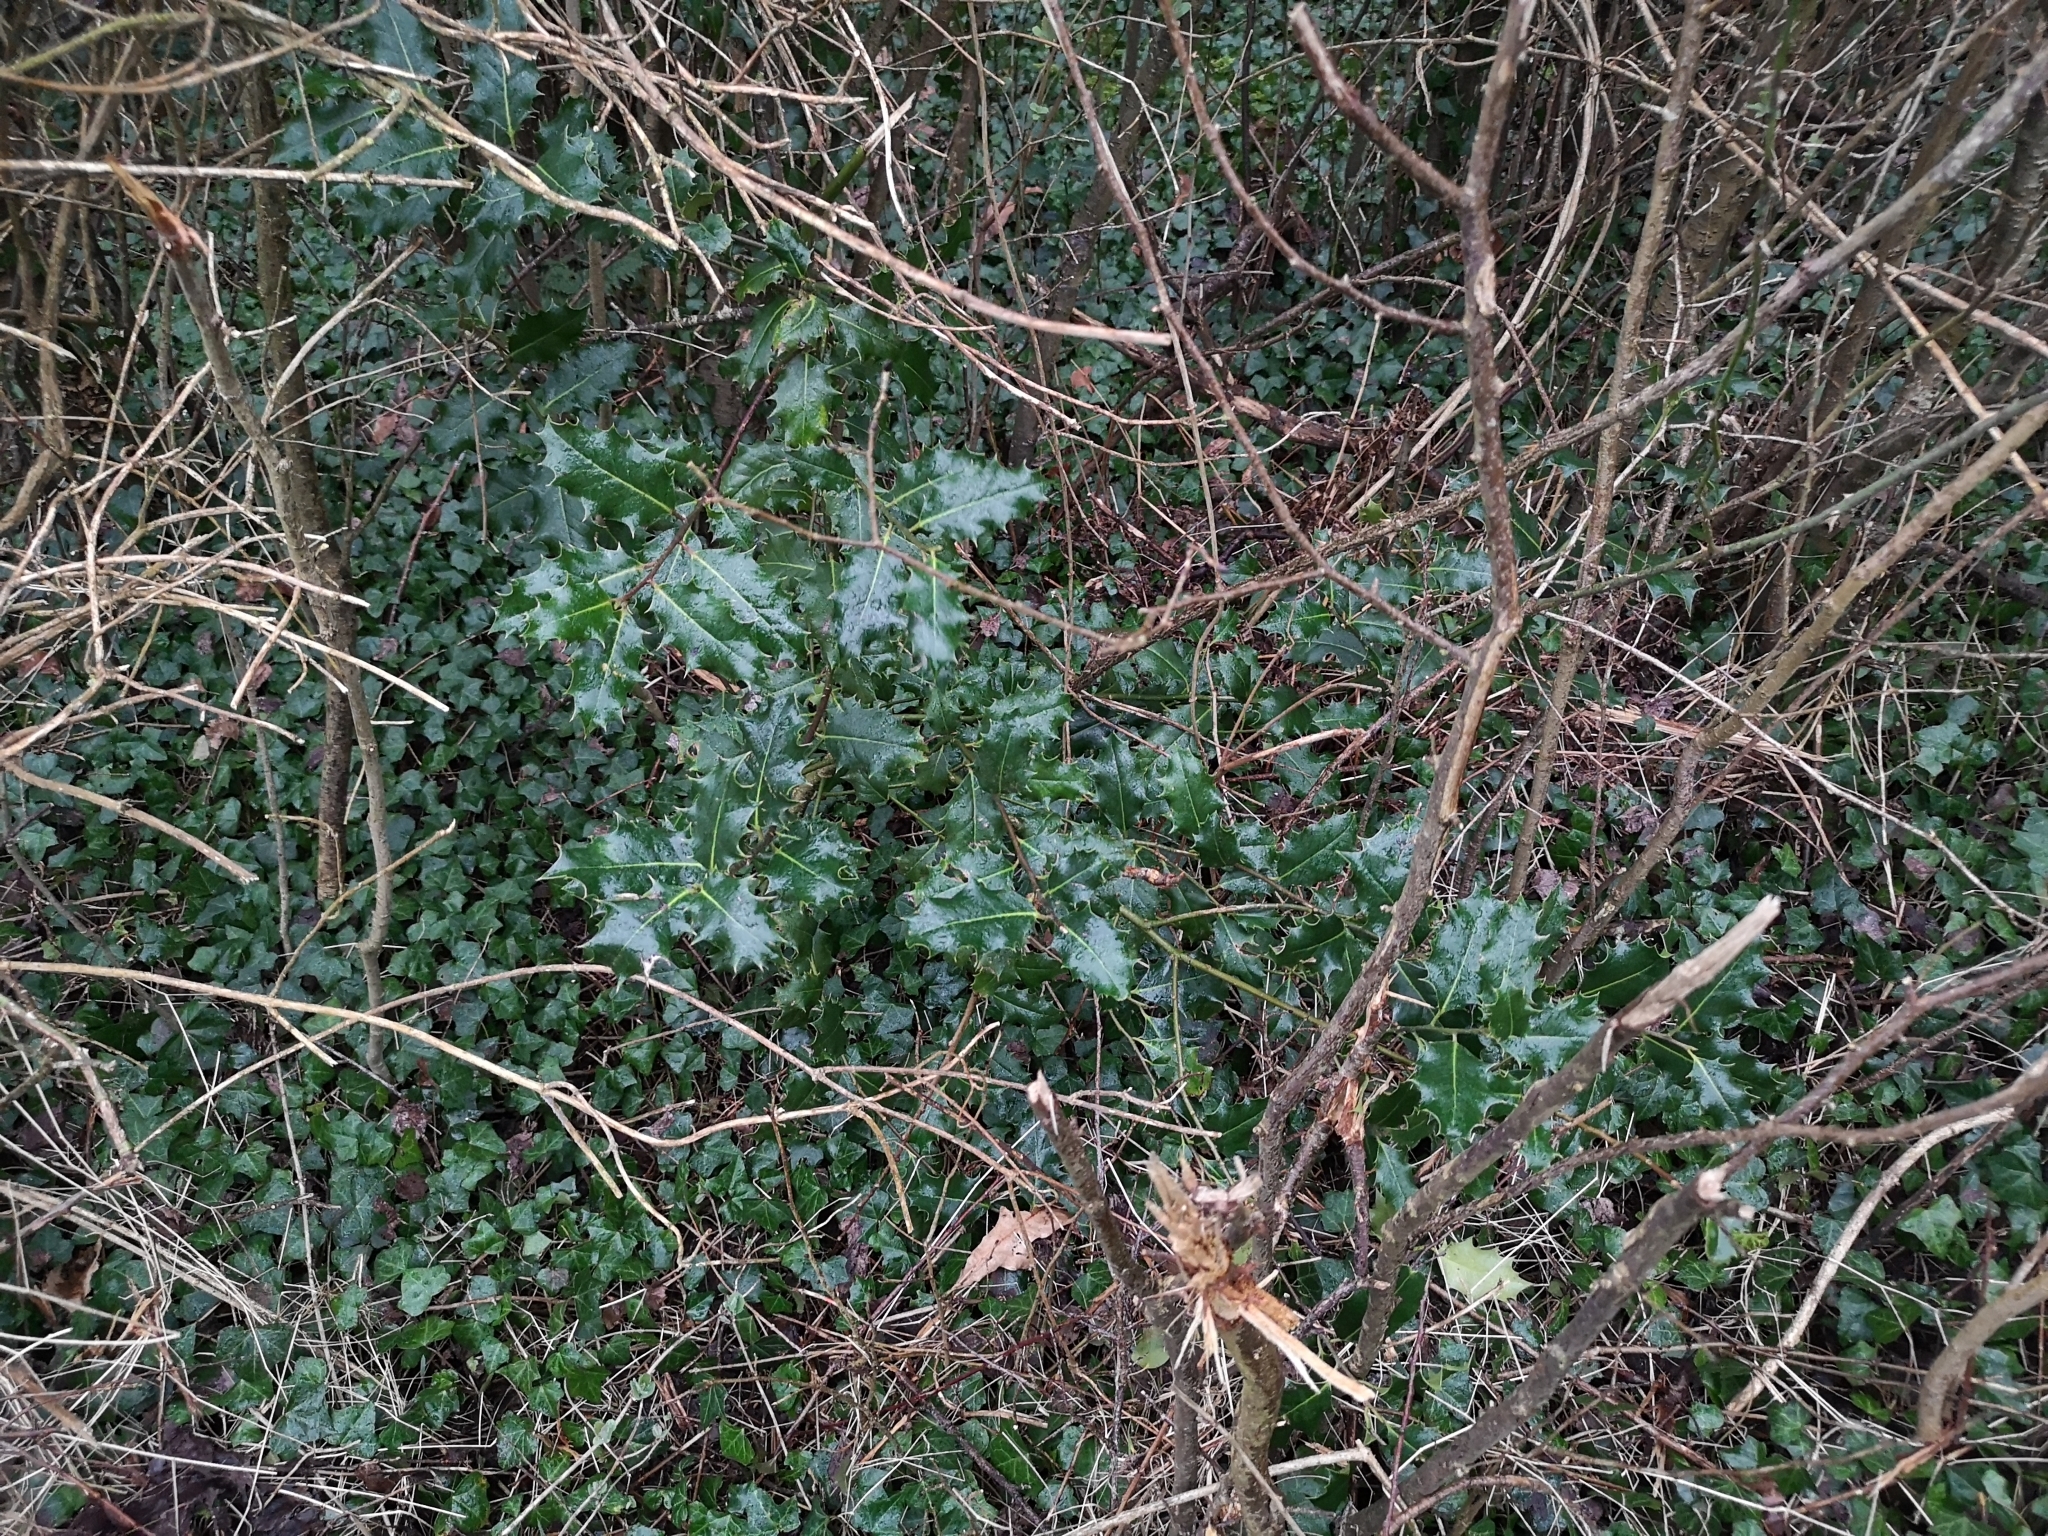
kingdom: Plantae
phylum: Tracheophyta
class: Magnoliopsida
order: Aquifoliales
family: Aquifoliaceae
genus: Ilex
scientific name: Ilex aquifolium
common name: English holly
